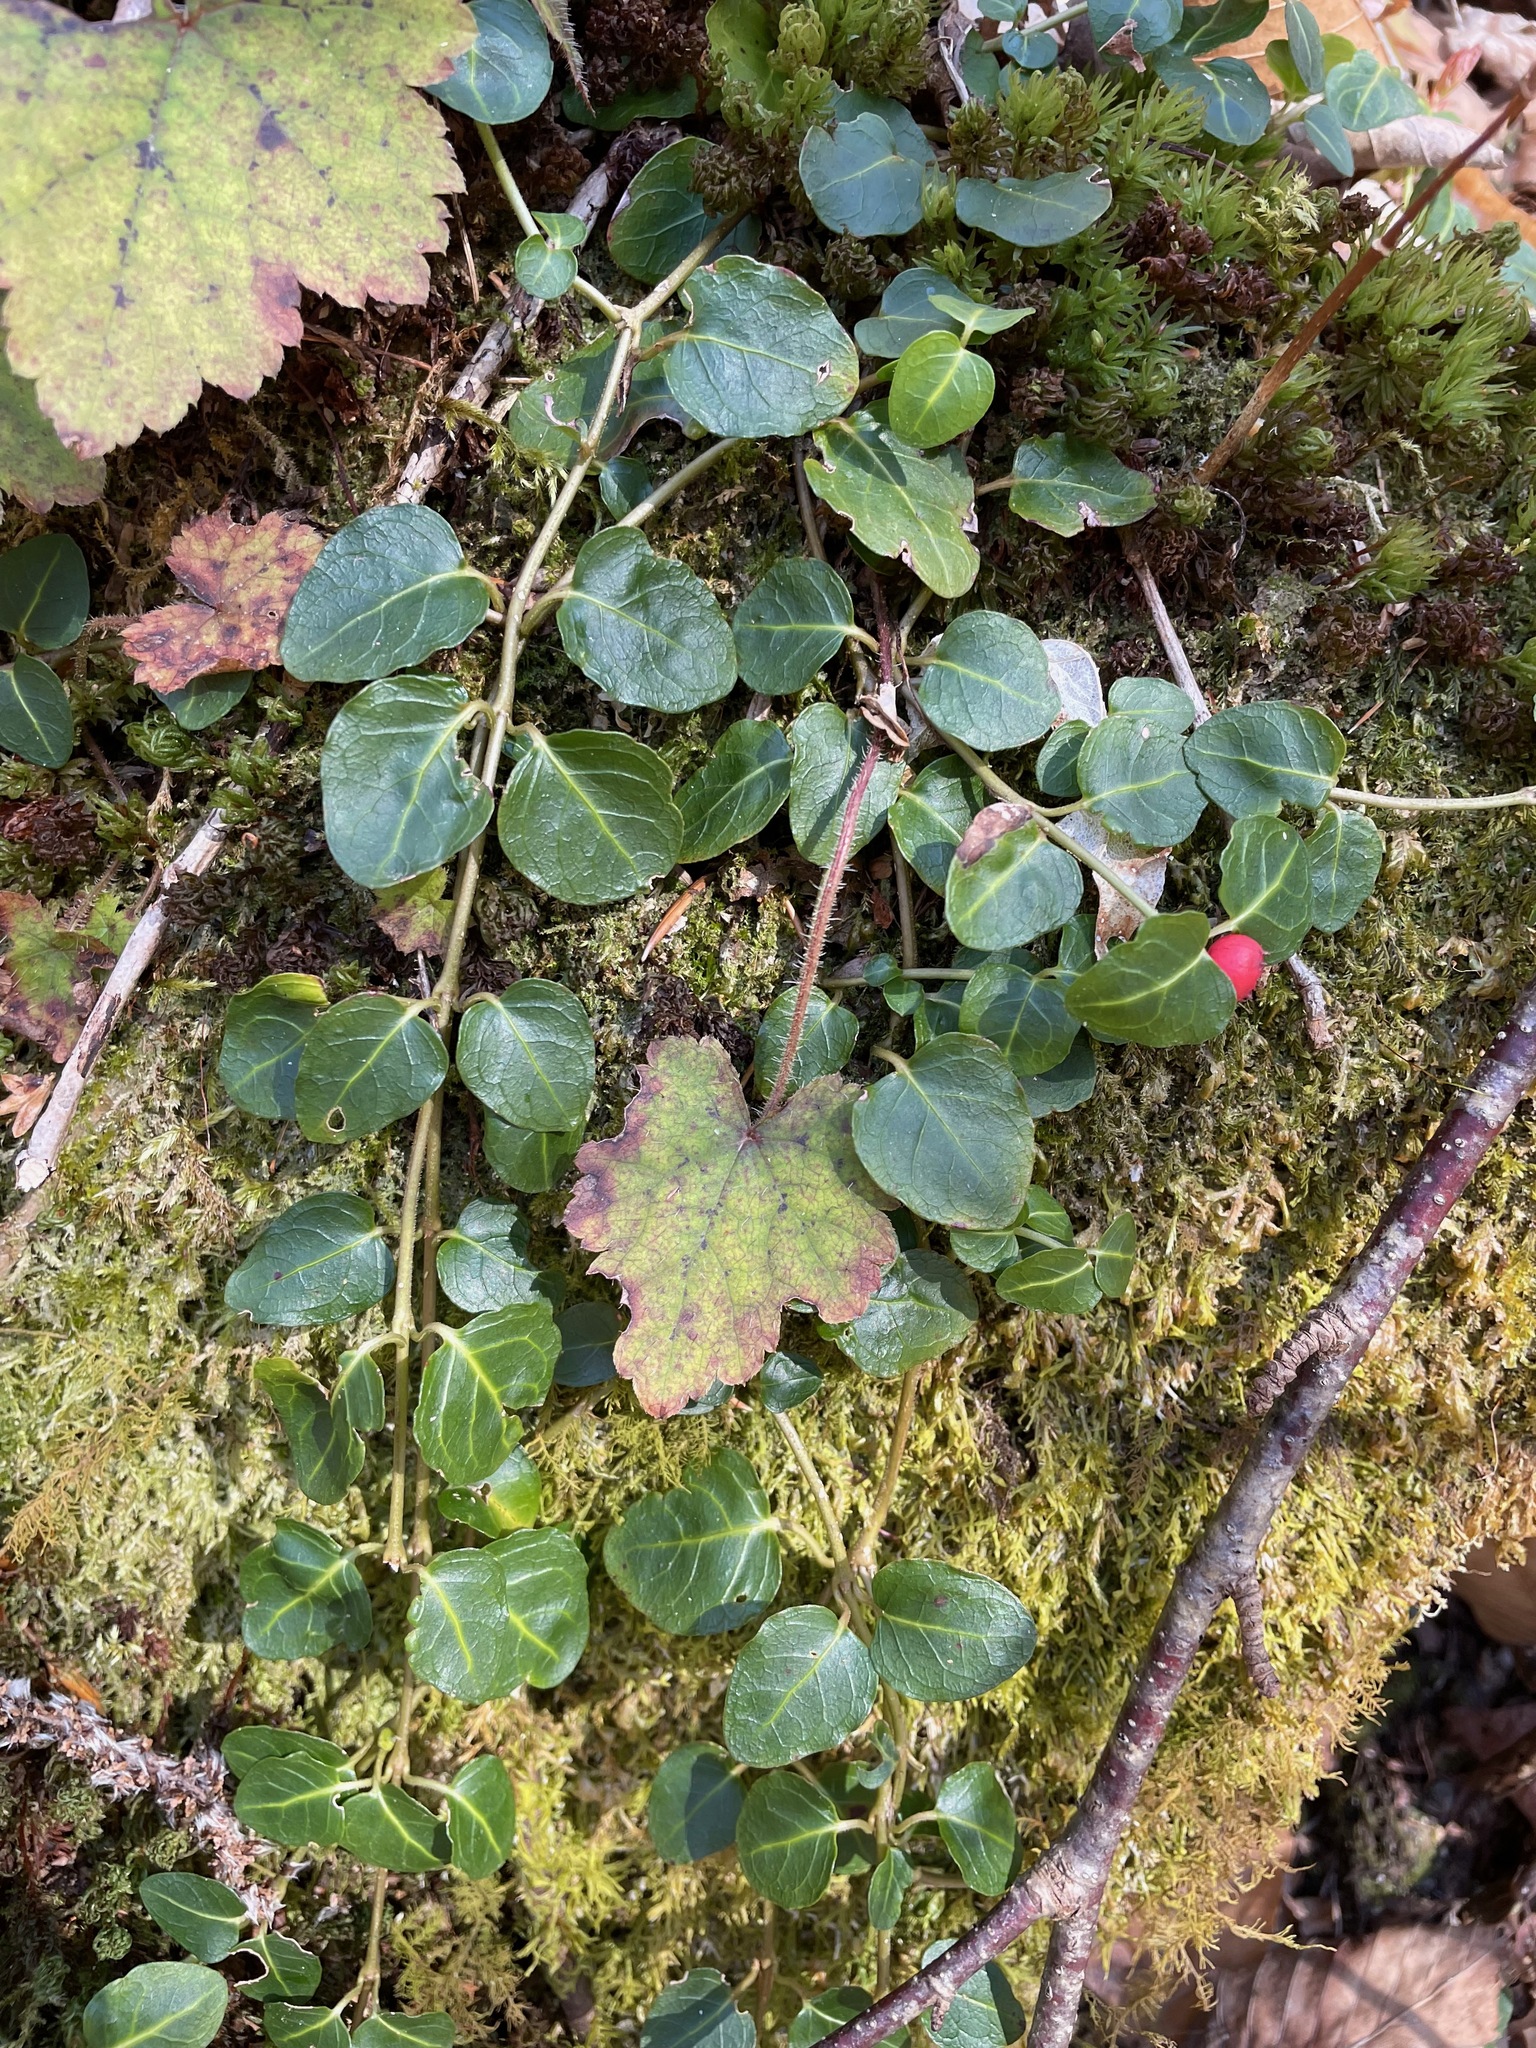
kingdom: Plantae
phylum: Tracheophyta
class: Magnoliopsida
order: Gentianales
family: Rubiaceae
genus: Mitchella
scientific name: Mitchella repens
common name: Partridge-berry
